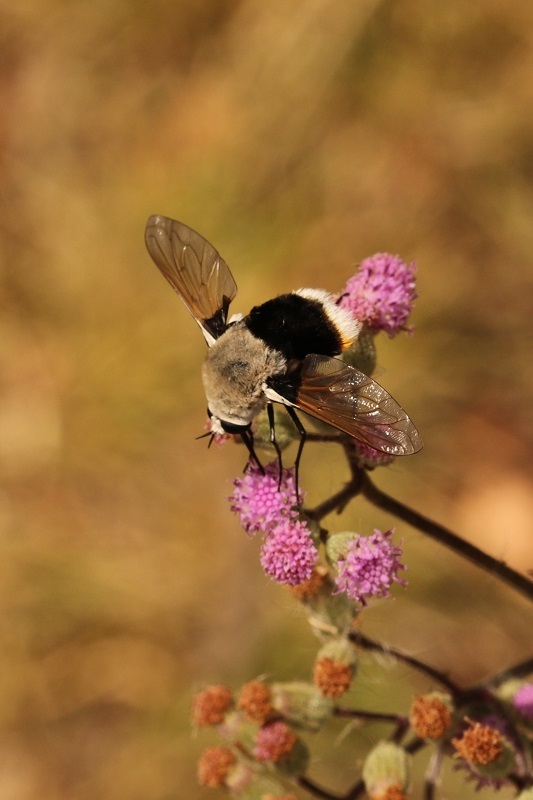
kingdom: Animalia
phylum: Arthropoda
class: Insecta
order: Diptera
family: Bombyliidae
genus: Bombomyia
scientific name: Bombomyia discoidea
